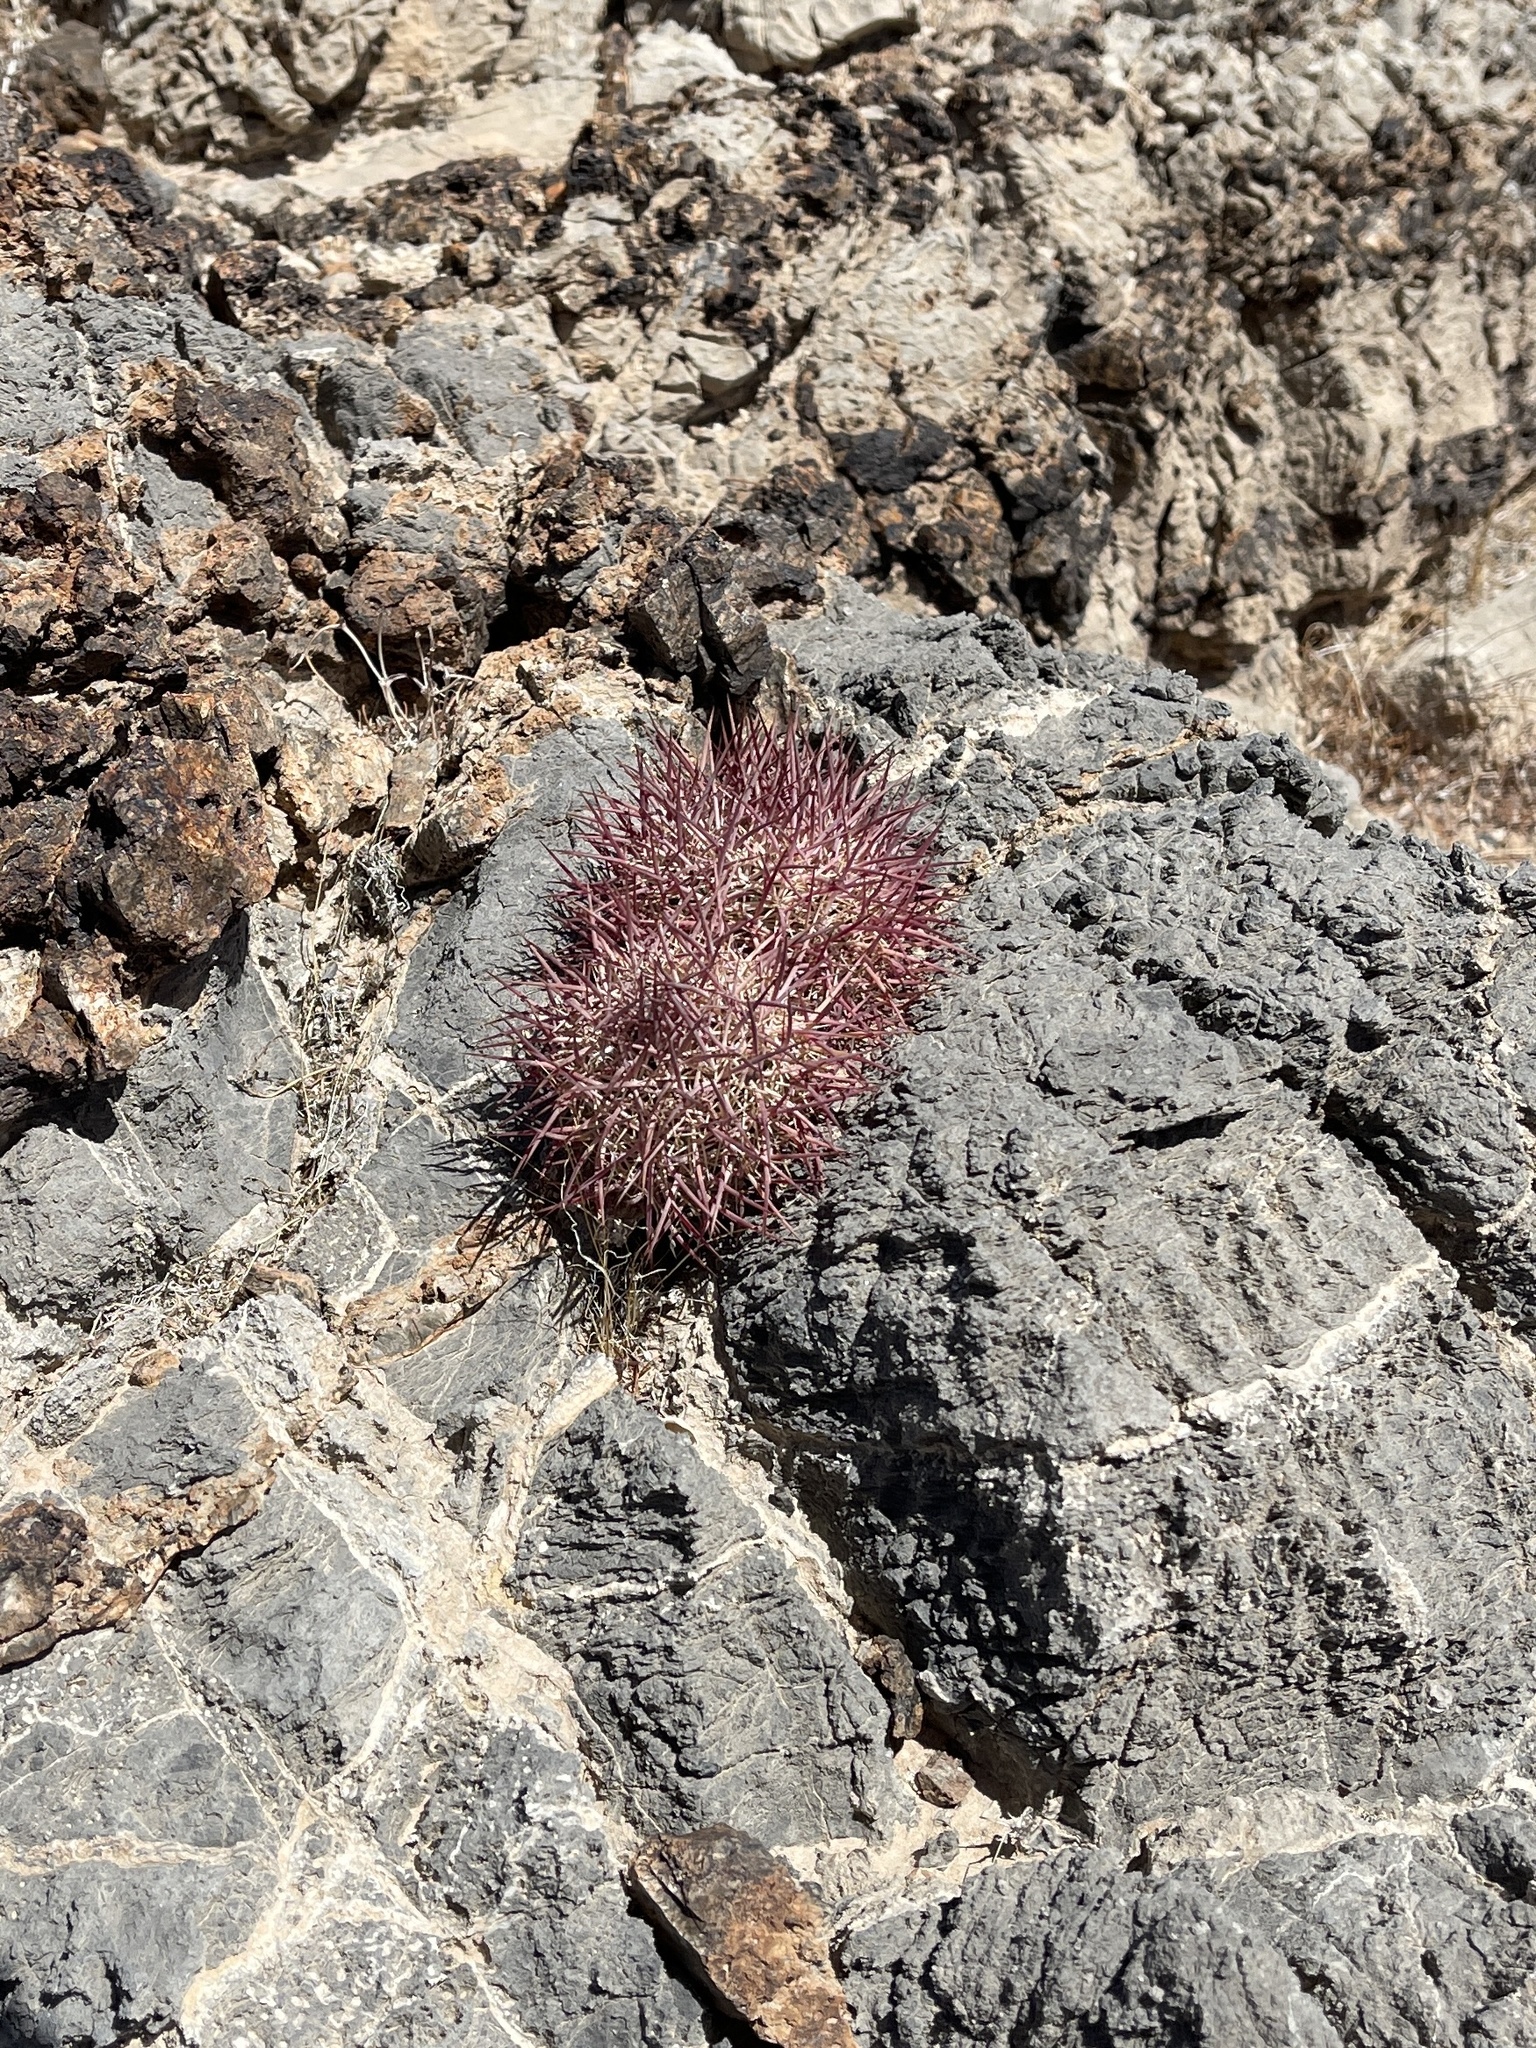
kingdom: Plantae
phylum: Tracheophyta
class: Magnoliopsida
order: Caryophyllales
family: Cactaceae
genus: Sclerocactus
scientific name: Sclerocactus johnsonii
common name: Eight-spine fishhook cactus
